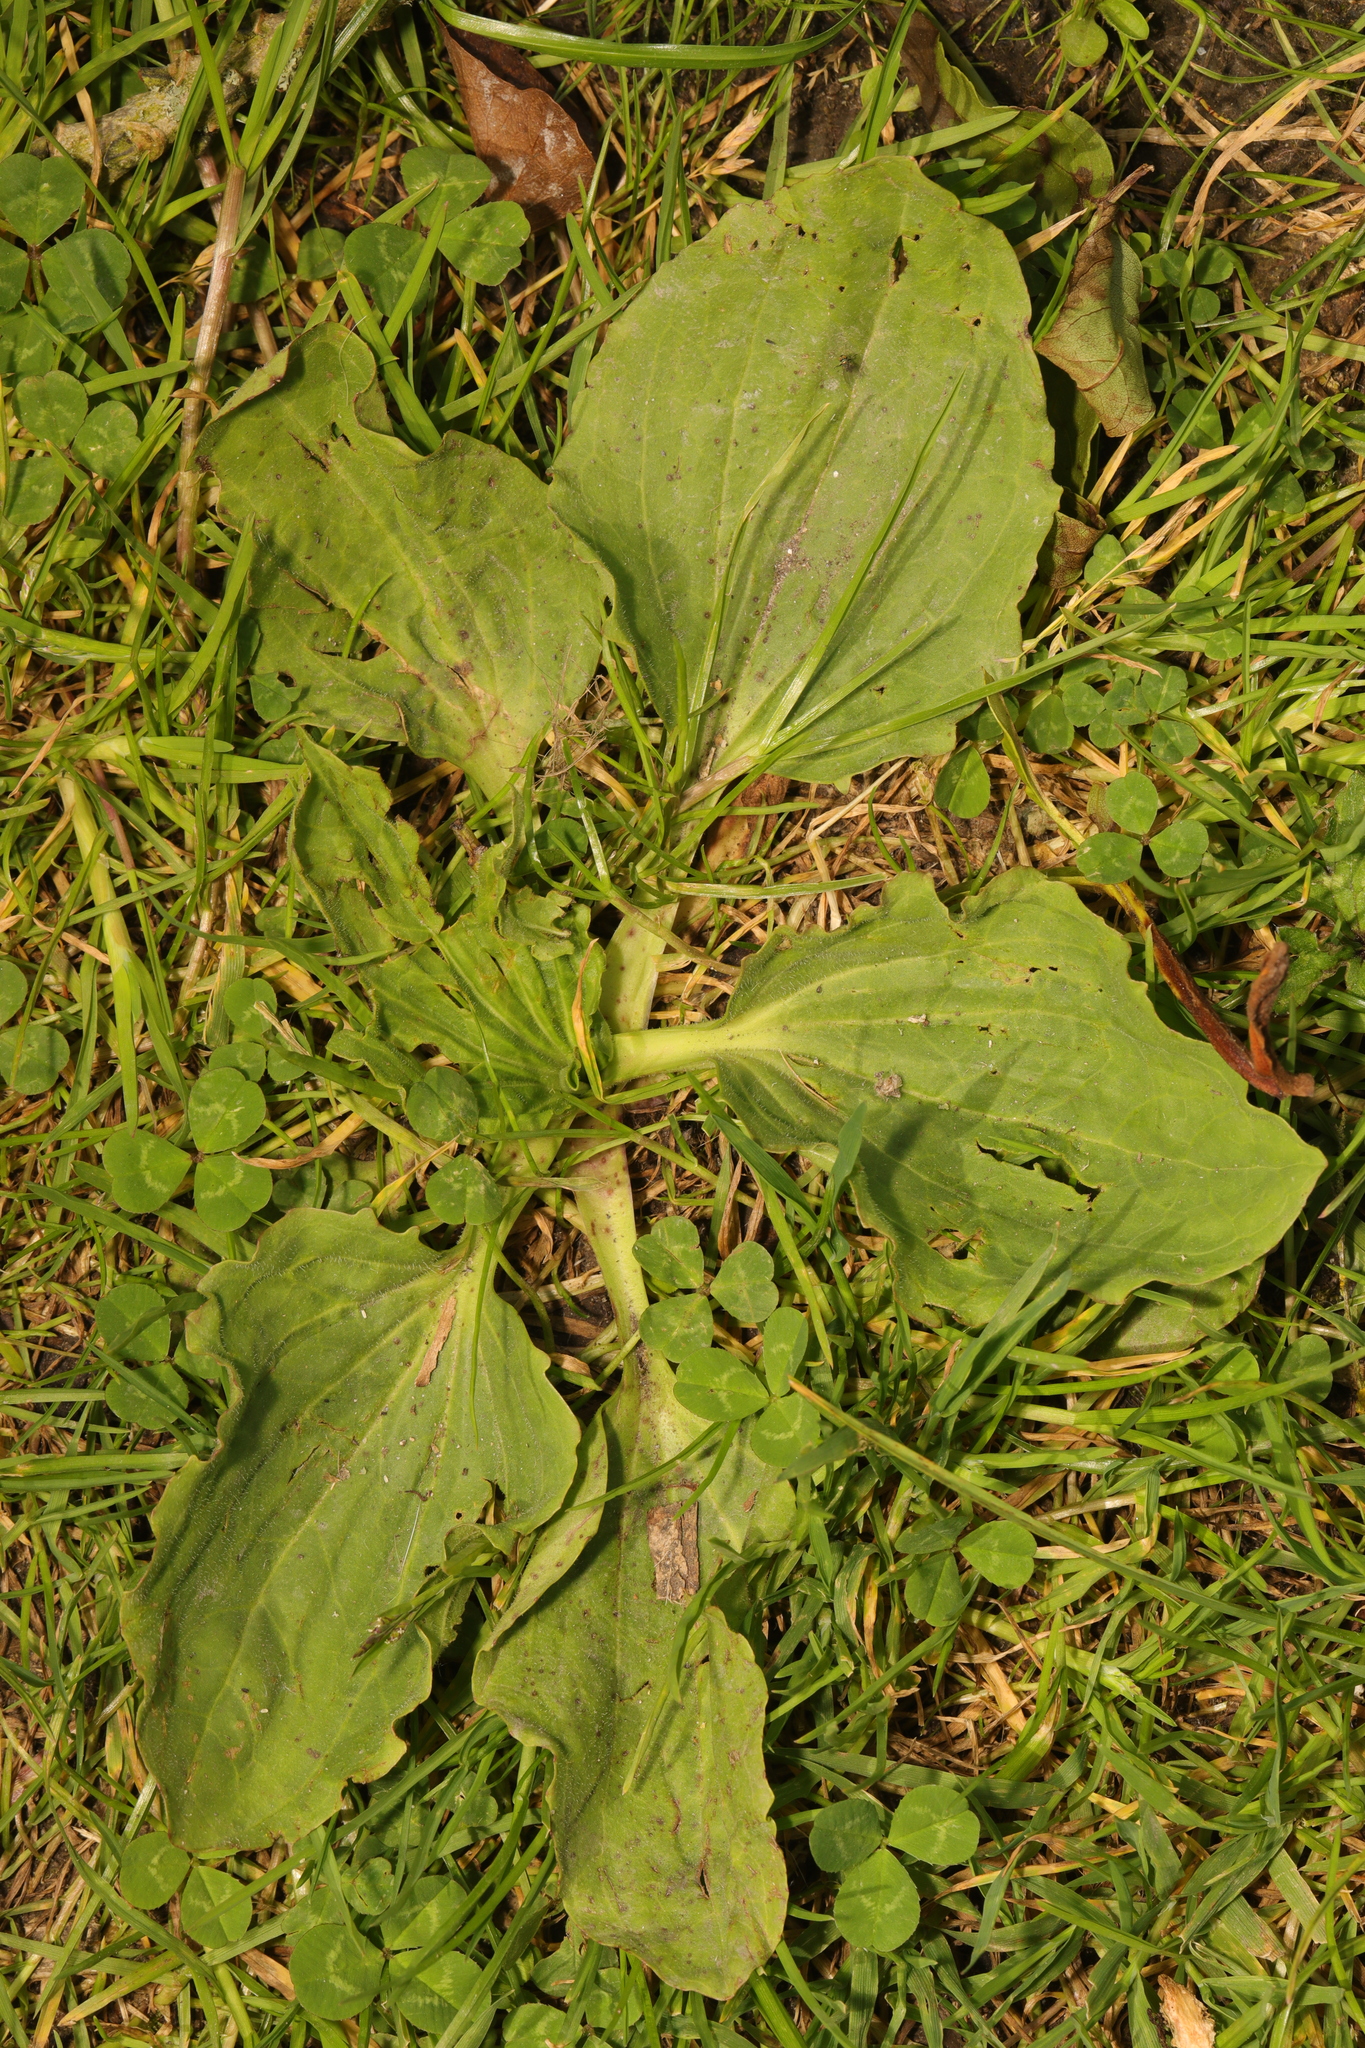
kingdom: Plantae
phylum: Tracheophyta
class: Magnoliopsida
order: Lamiales
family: Plantaginaceae
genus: Plantago
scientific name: Plantago major
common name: Common plantain
